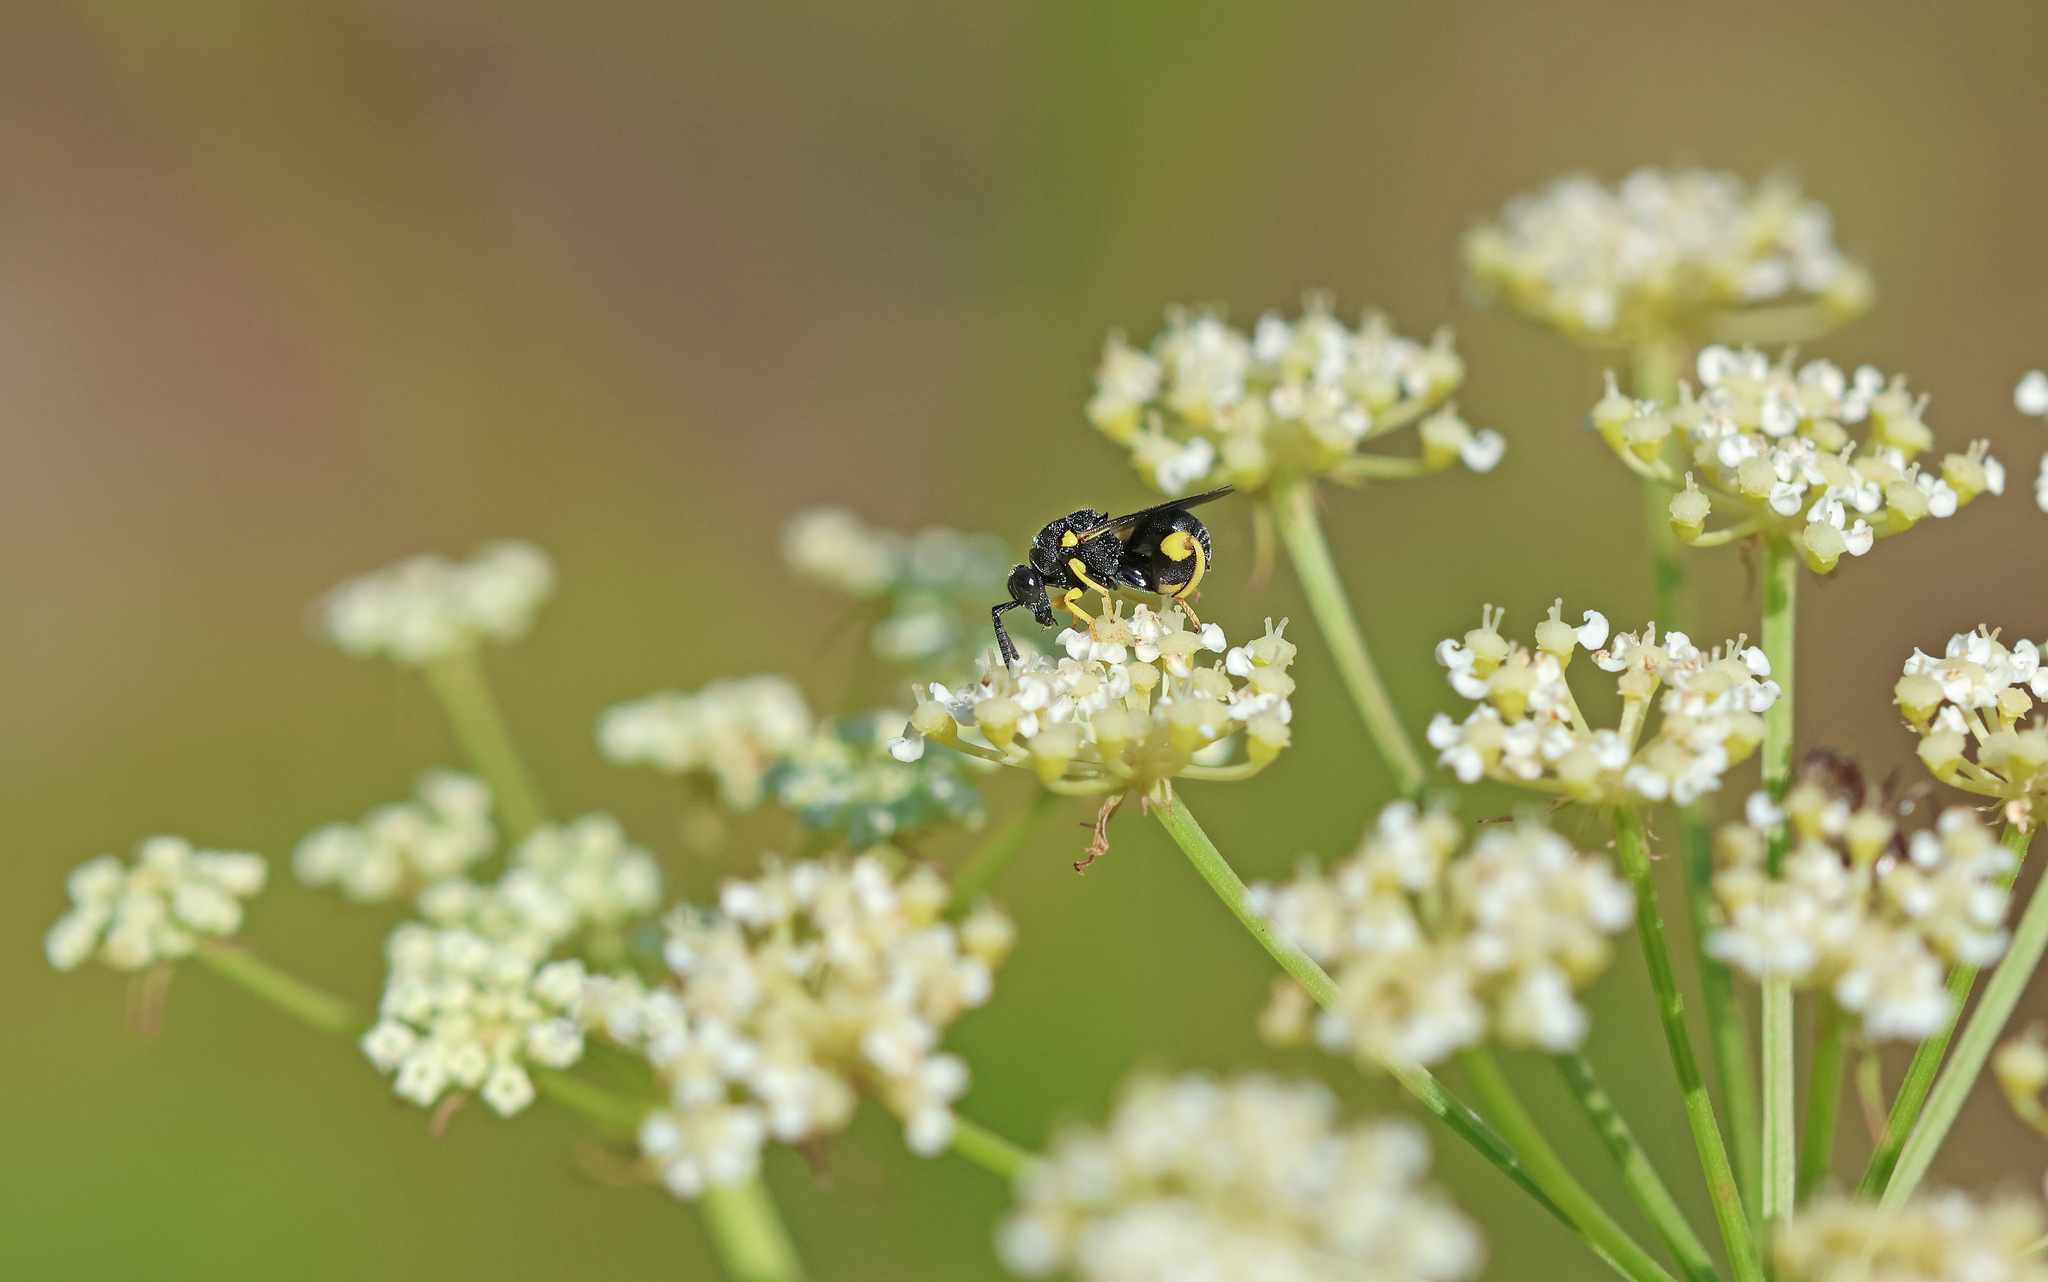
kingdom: Animalia
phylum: Arthropoda
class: Insecta
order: Hymenoptera
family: Chalcididae
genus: Brachymeria
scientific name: Brachymeria femorata
